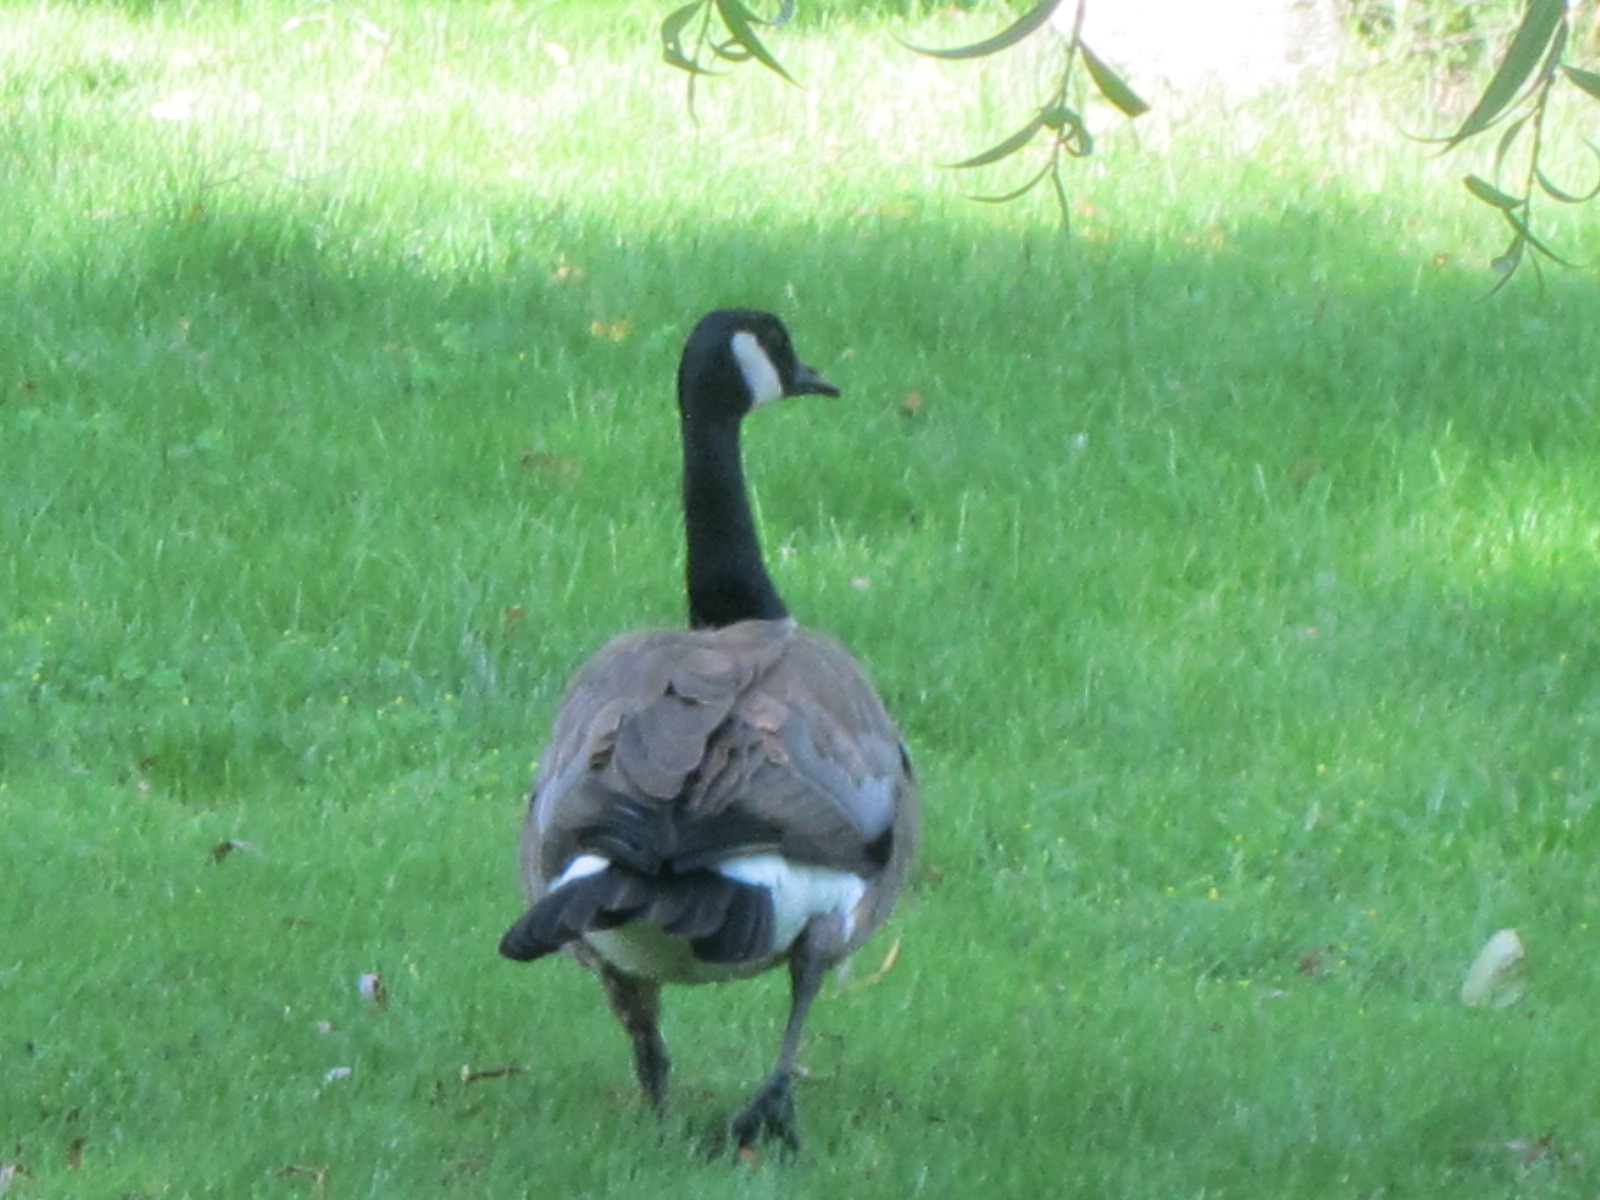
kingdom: Animalia
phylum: Chordata
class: Aves
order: Anseriformes
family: Anatidae
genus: Branta
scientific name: Branta canadensis
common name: Canada goose
